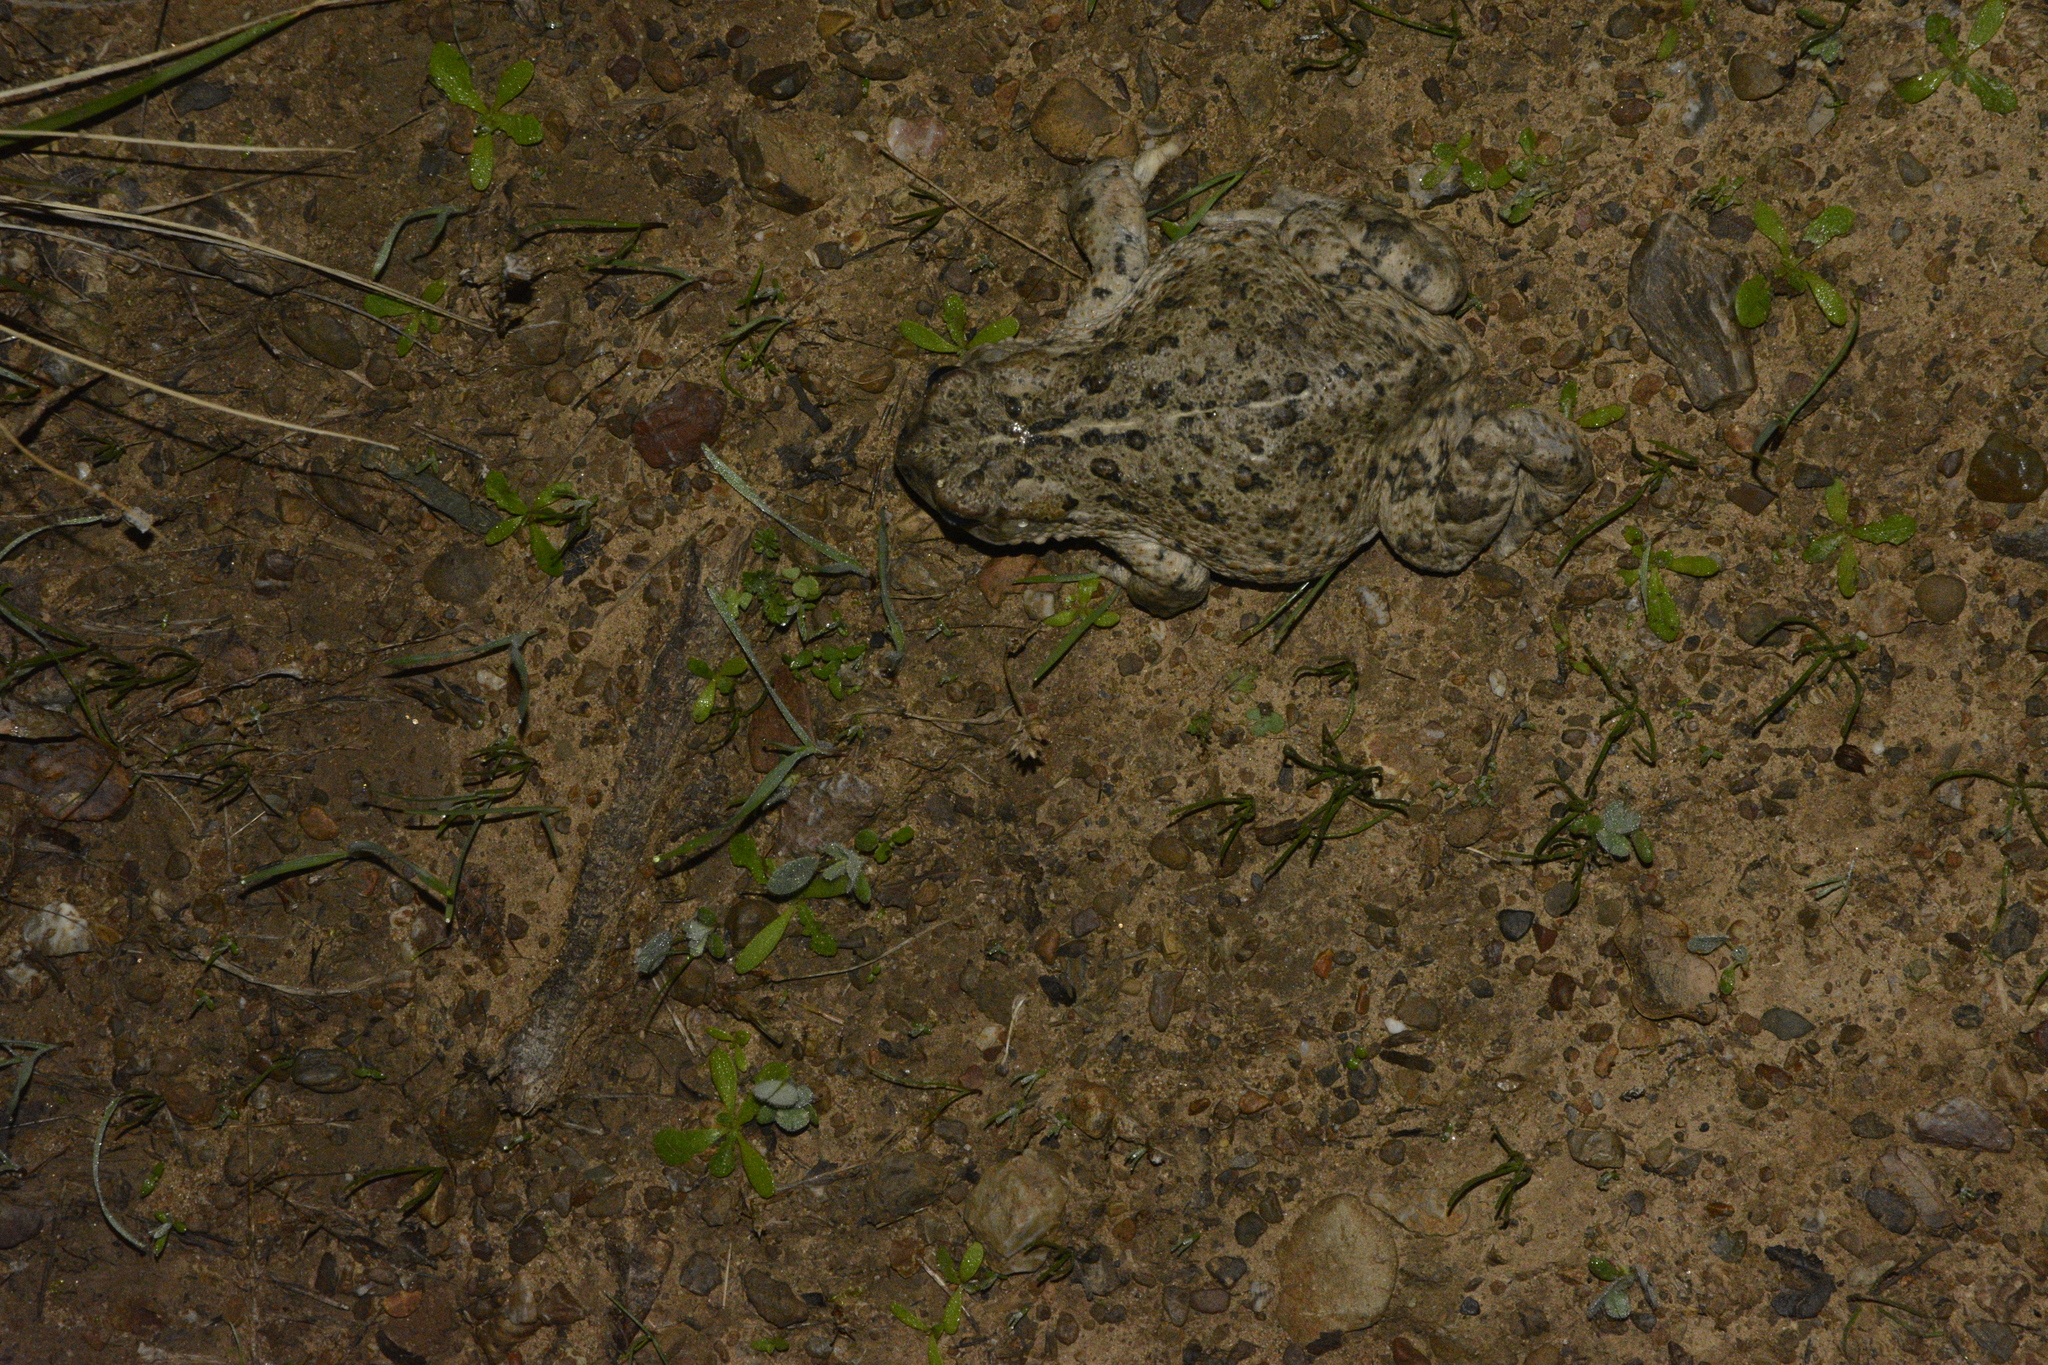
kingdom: Animalia
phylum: Chordata
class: Amphibia
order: Anura
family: Bufonidae
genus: Anaxyrus
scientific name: Anaxyrus boreas
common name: Western toad
